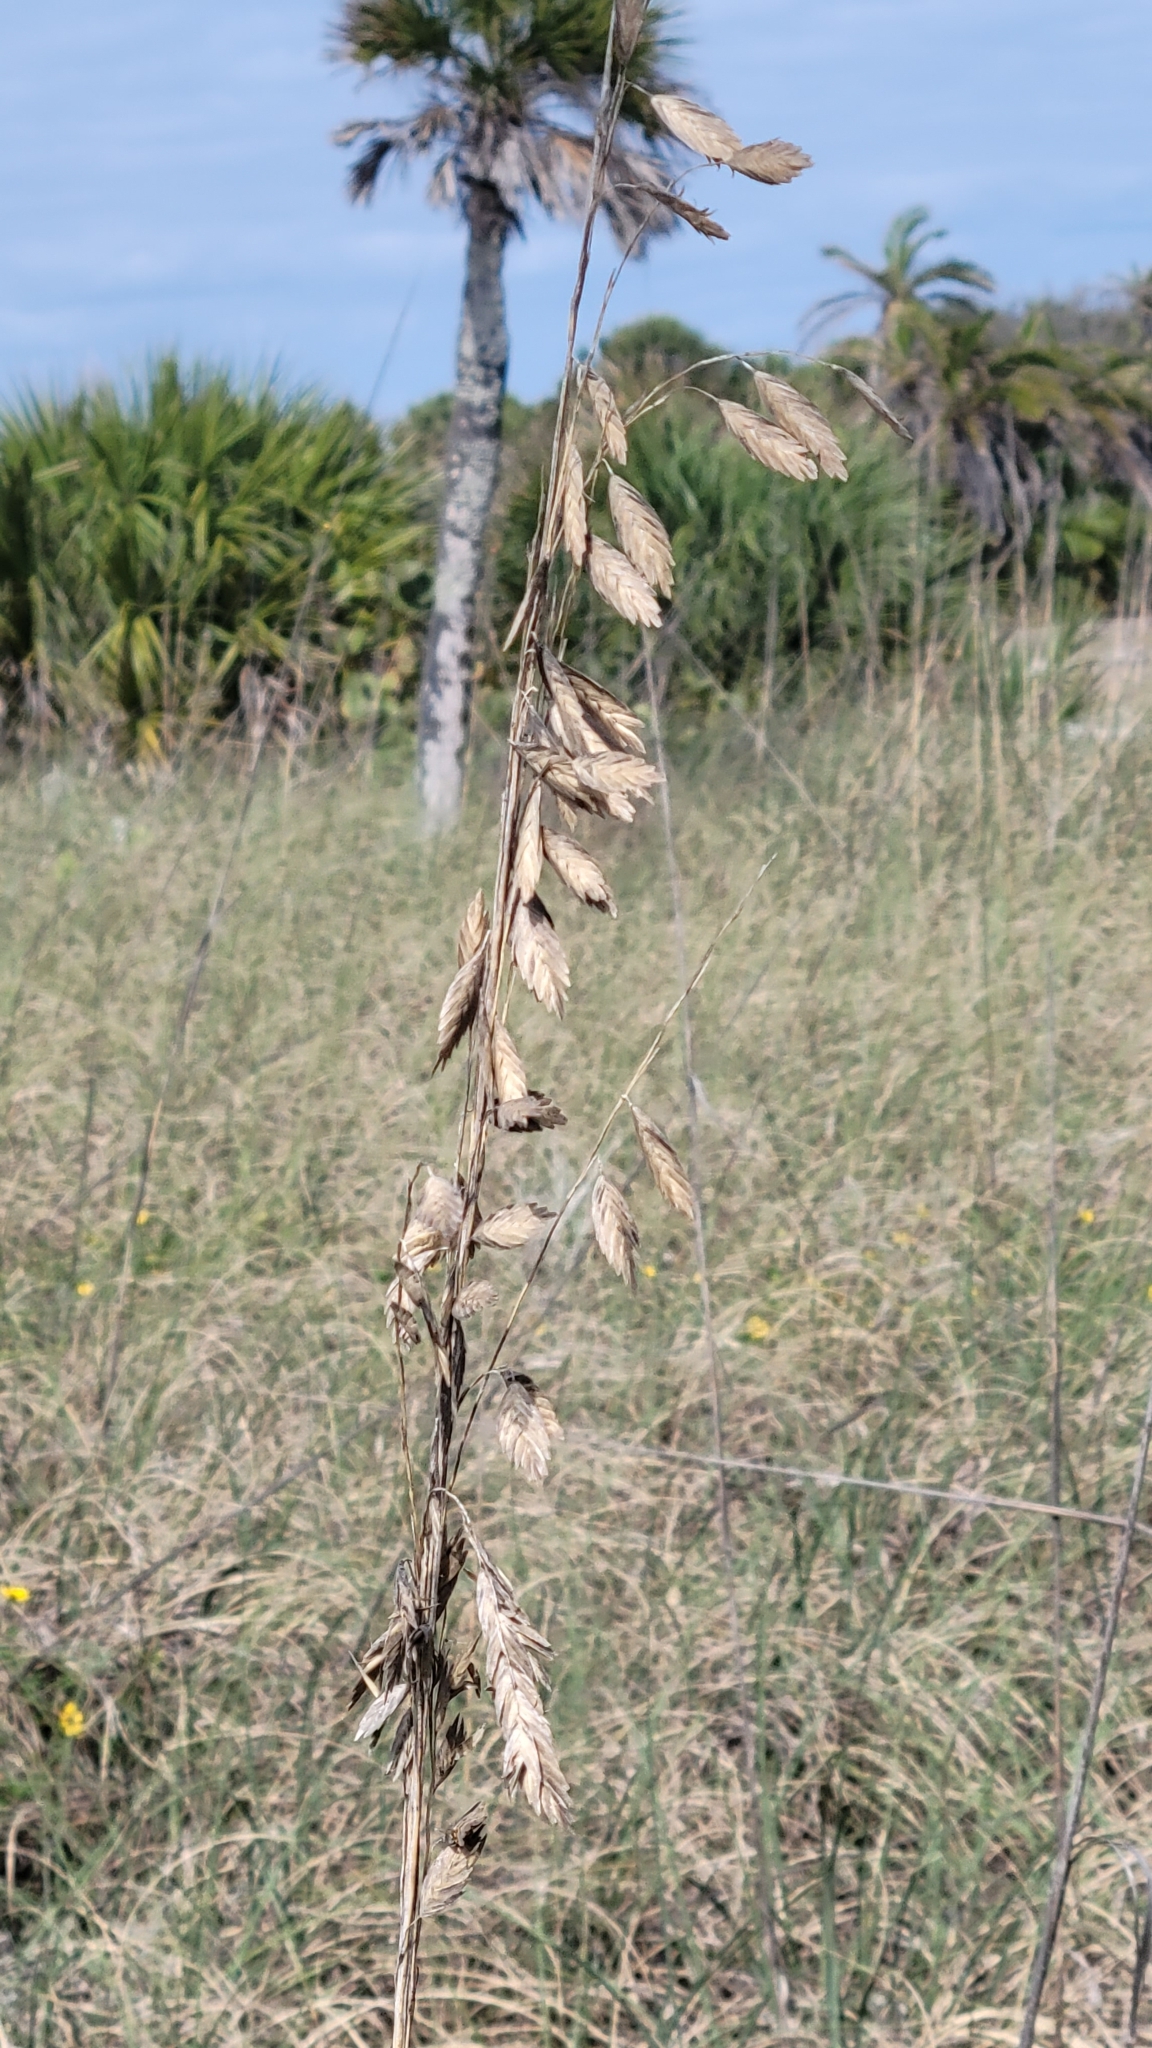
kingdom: Plantae
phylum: Tracheophyta
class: Liliopsida
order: Poales
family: Poaceae
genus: Uniola
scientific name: Uniola paniculata
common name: Seaside-oats
